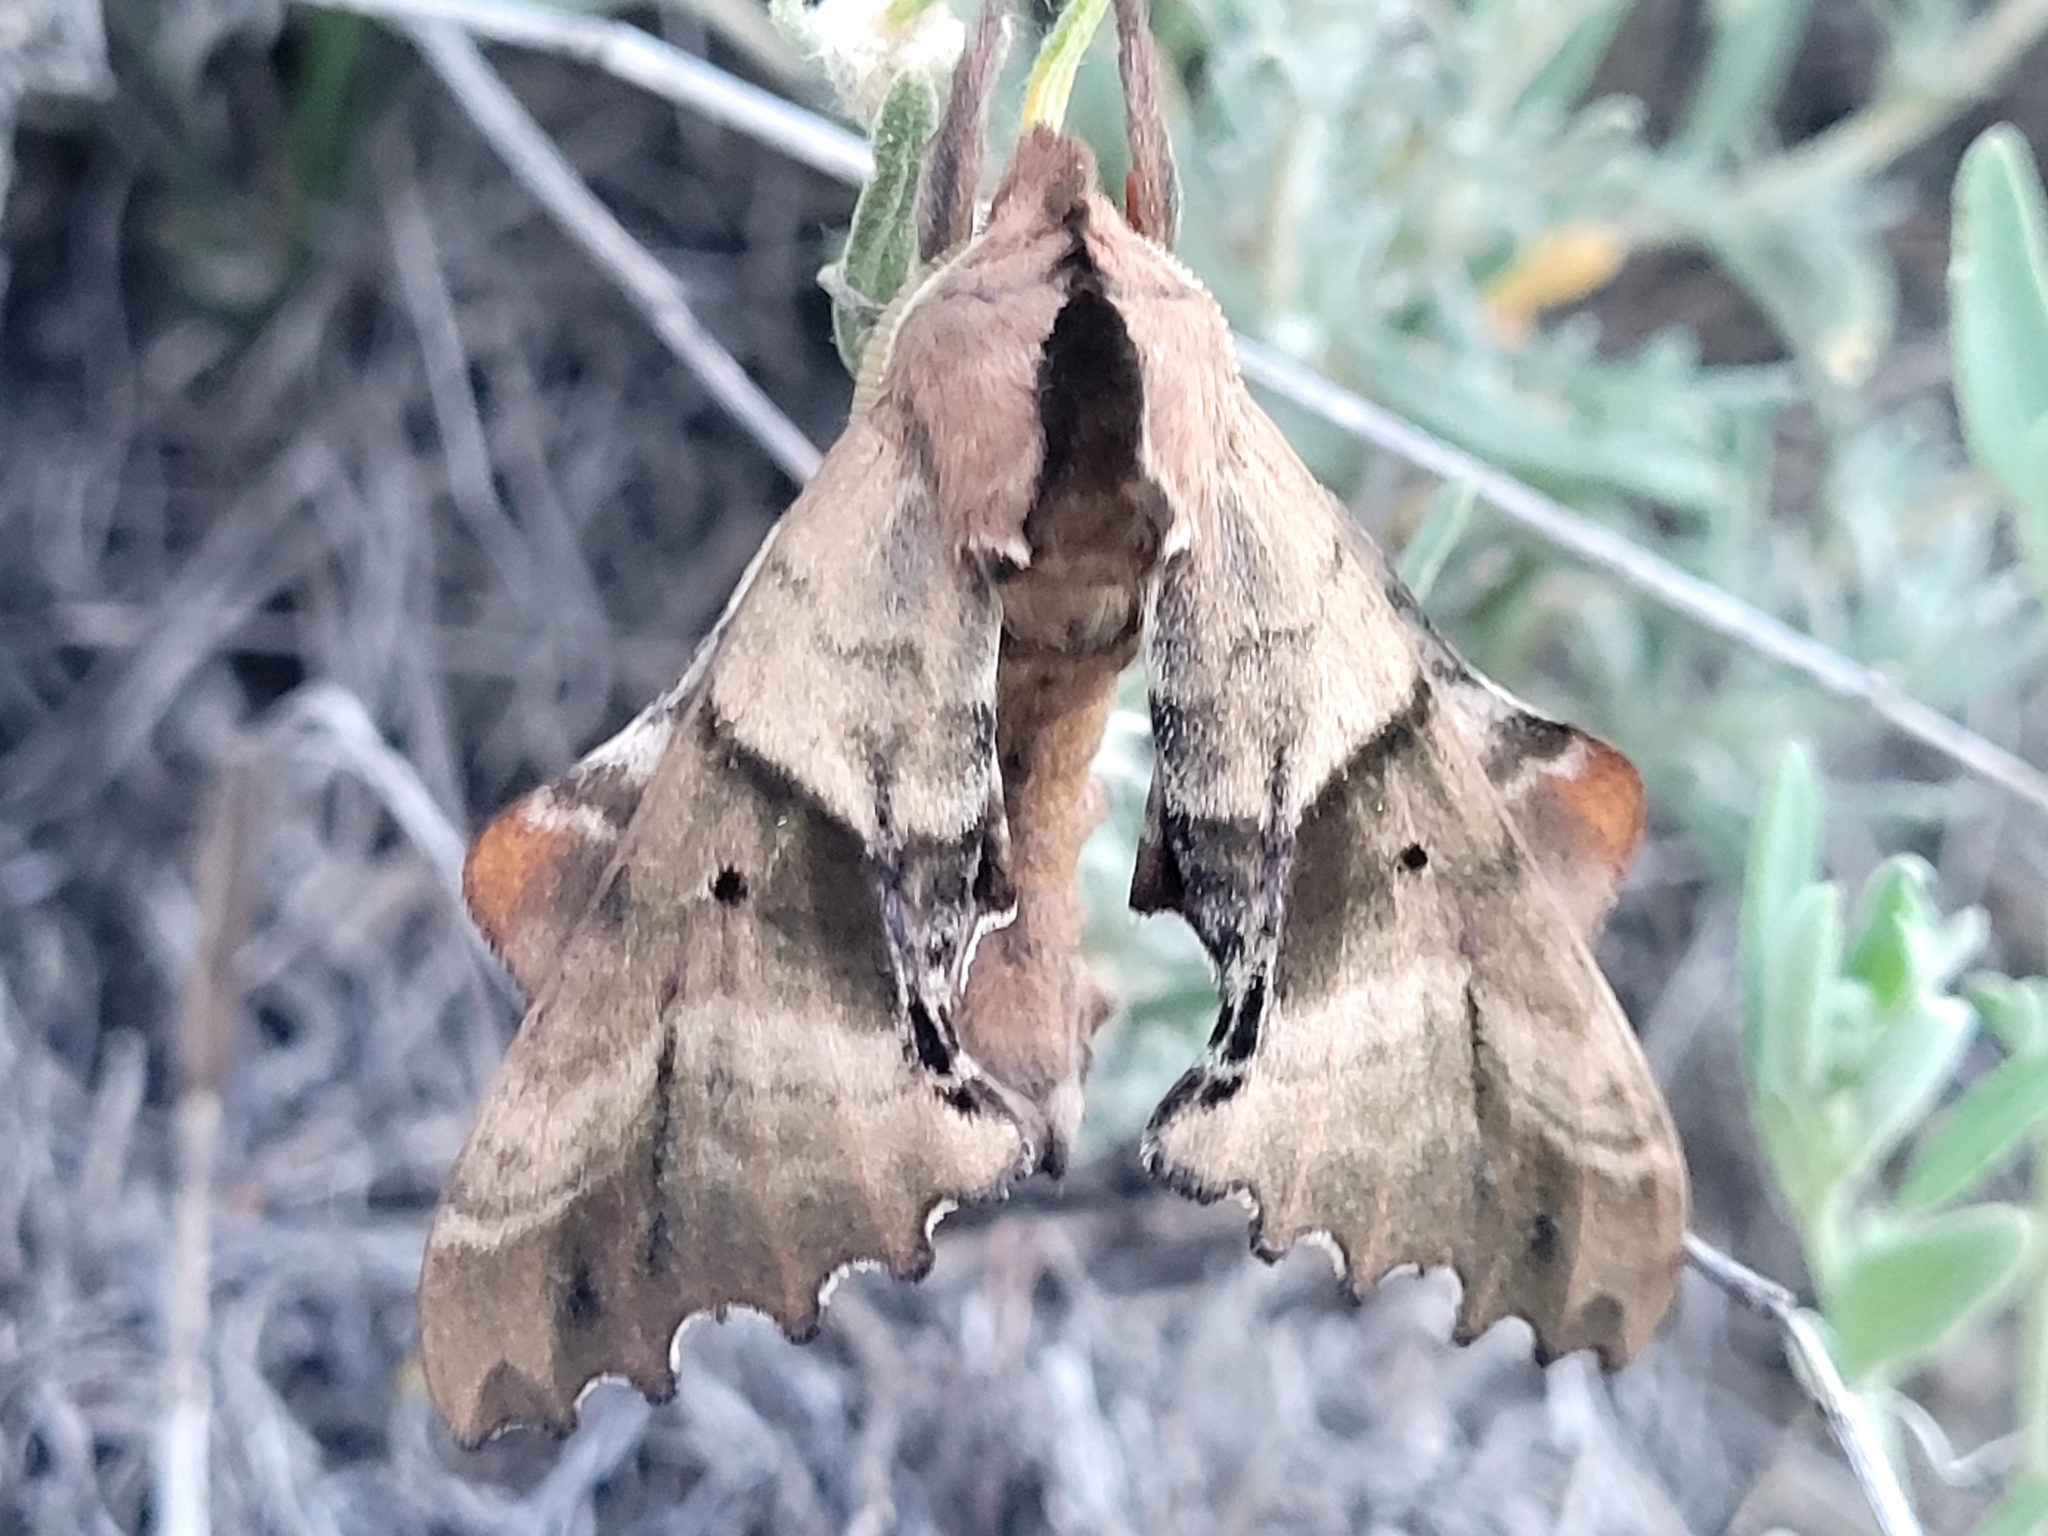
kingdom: Animalia
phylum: Arthropoda
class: Insecta
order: Lepidoptera
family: Sphingidae
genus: Paonias
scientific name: Paonias excaecata
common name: Blind-eyed sphinx
